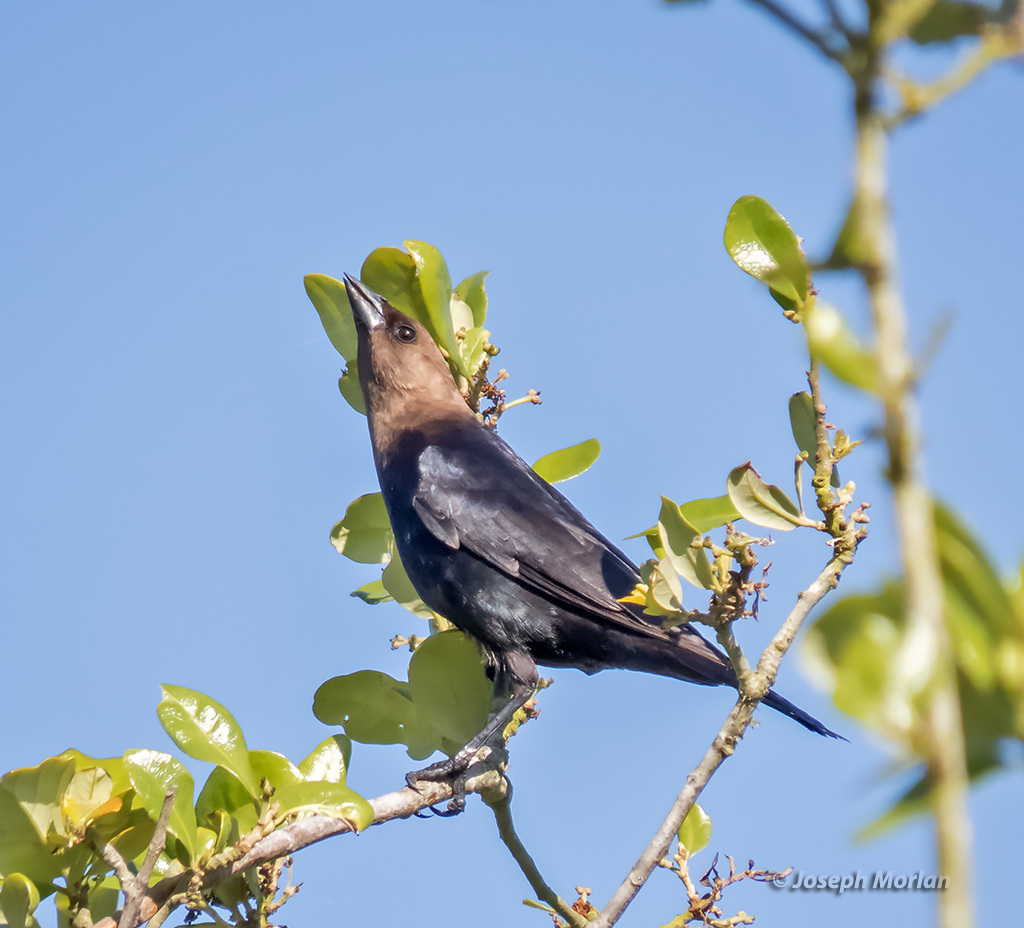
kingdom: Animalia
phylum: Chordata
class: Aves
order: Passeriformes
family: Icteridae
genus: Molothrus
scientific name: Molothrus ater
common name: Brown-headed cowbird
